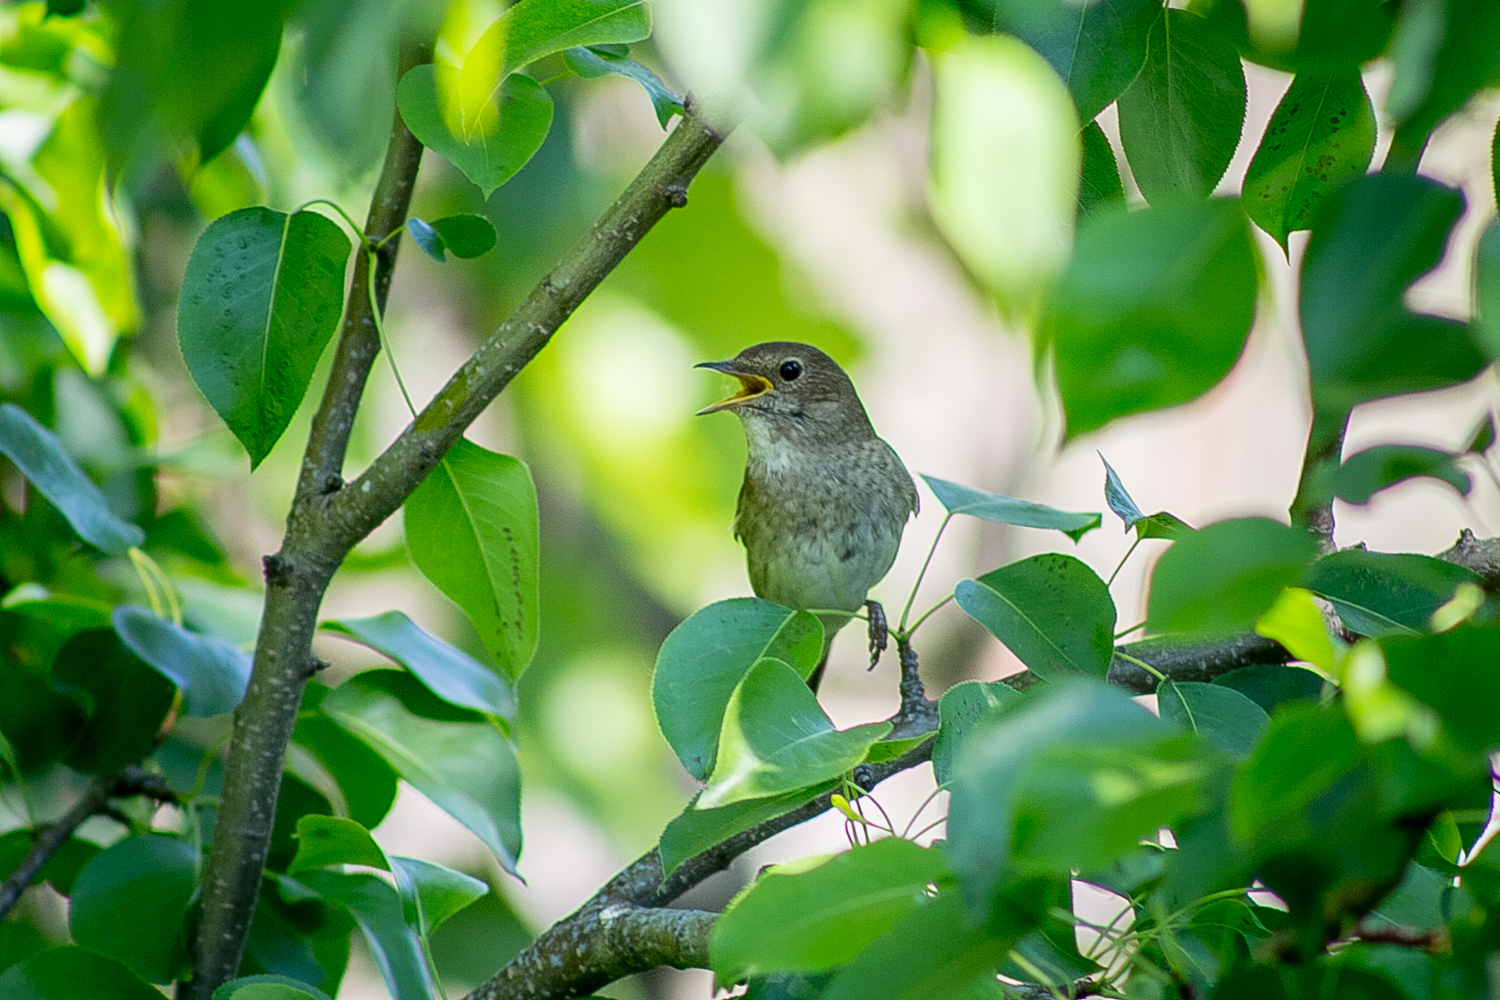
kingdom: Animalia
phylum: Chordata
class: Aves
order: Passeriformes
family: Muscicapidae
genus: Luscinia
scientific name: Luscinia luscinia
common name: Thrush nightingale
